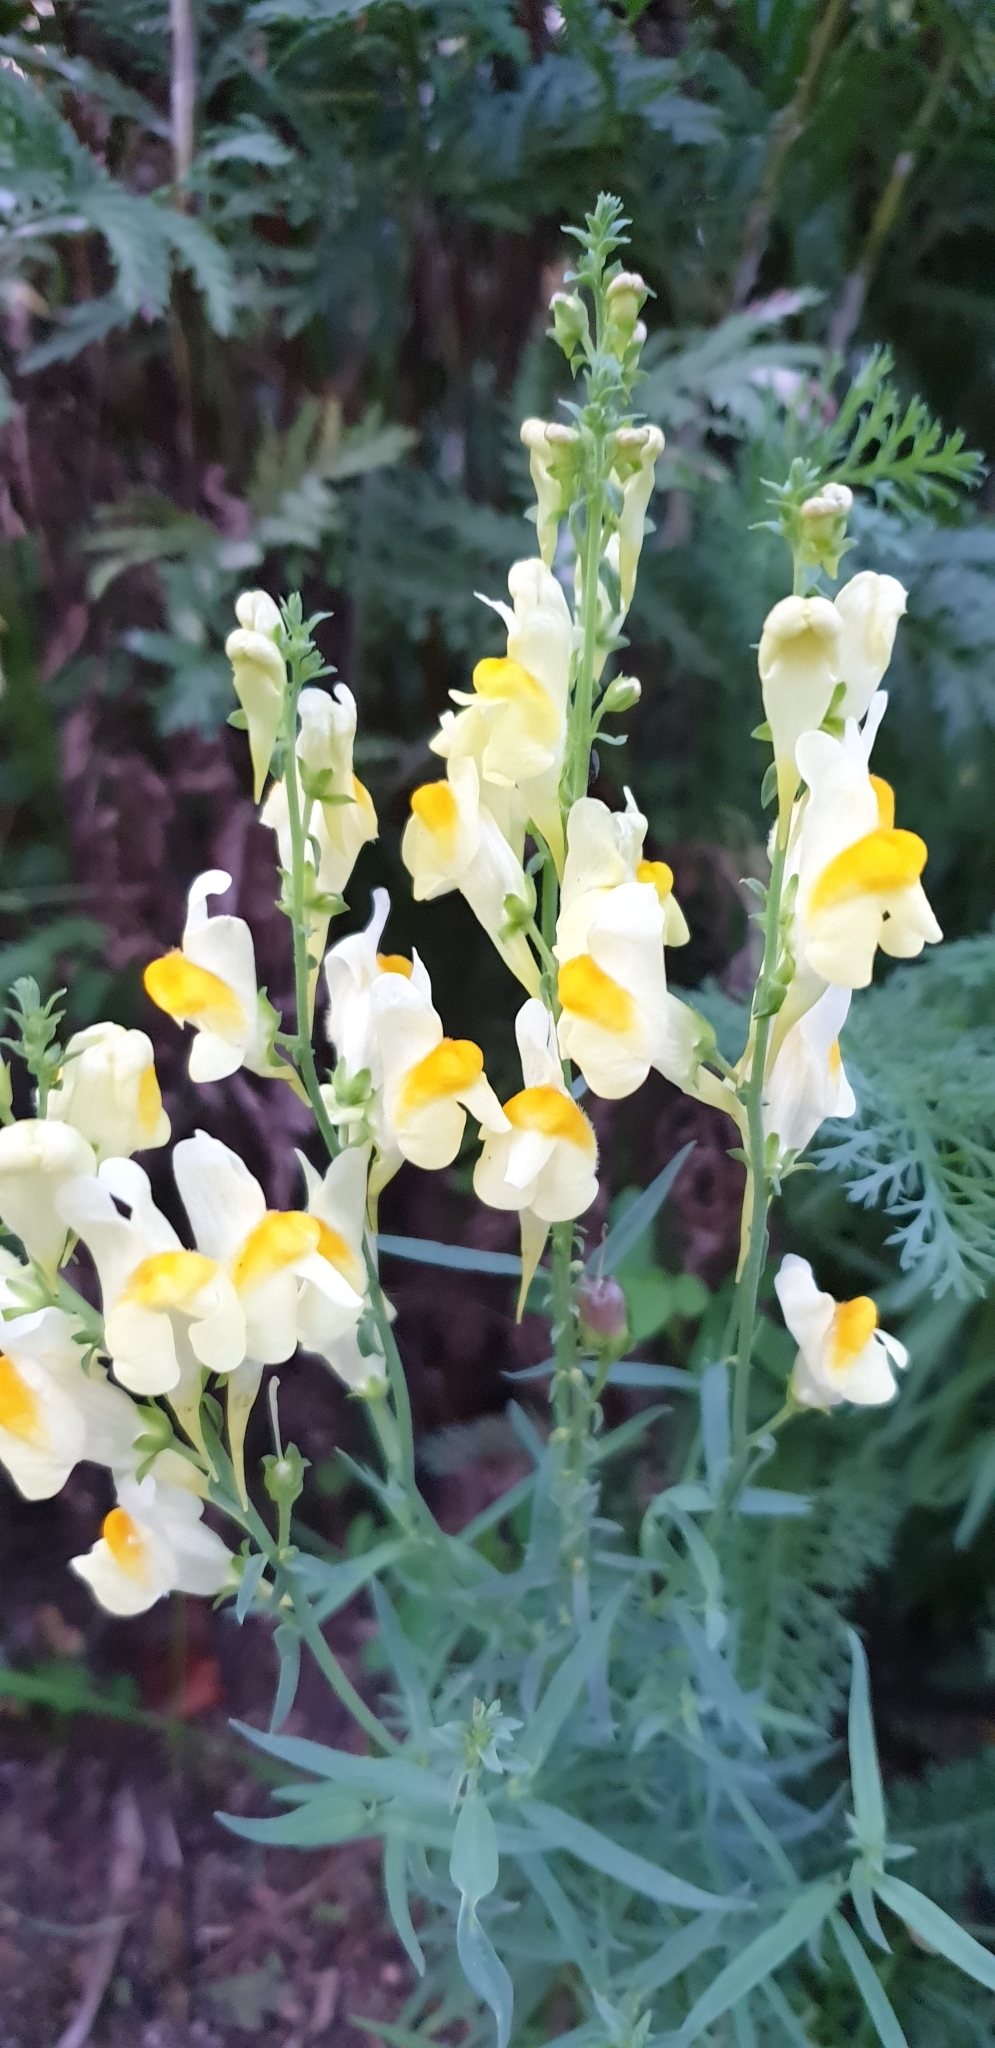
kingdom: Plantae
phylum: Tracheophyta
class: Magnoliopsida
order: Lamiales
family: Plantaginaceae
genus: Linaria
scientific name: Linaria vulgaris
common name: Butter and eggs
